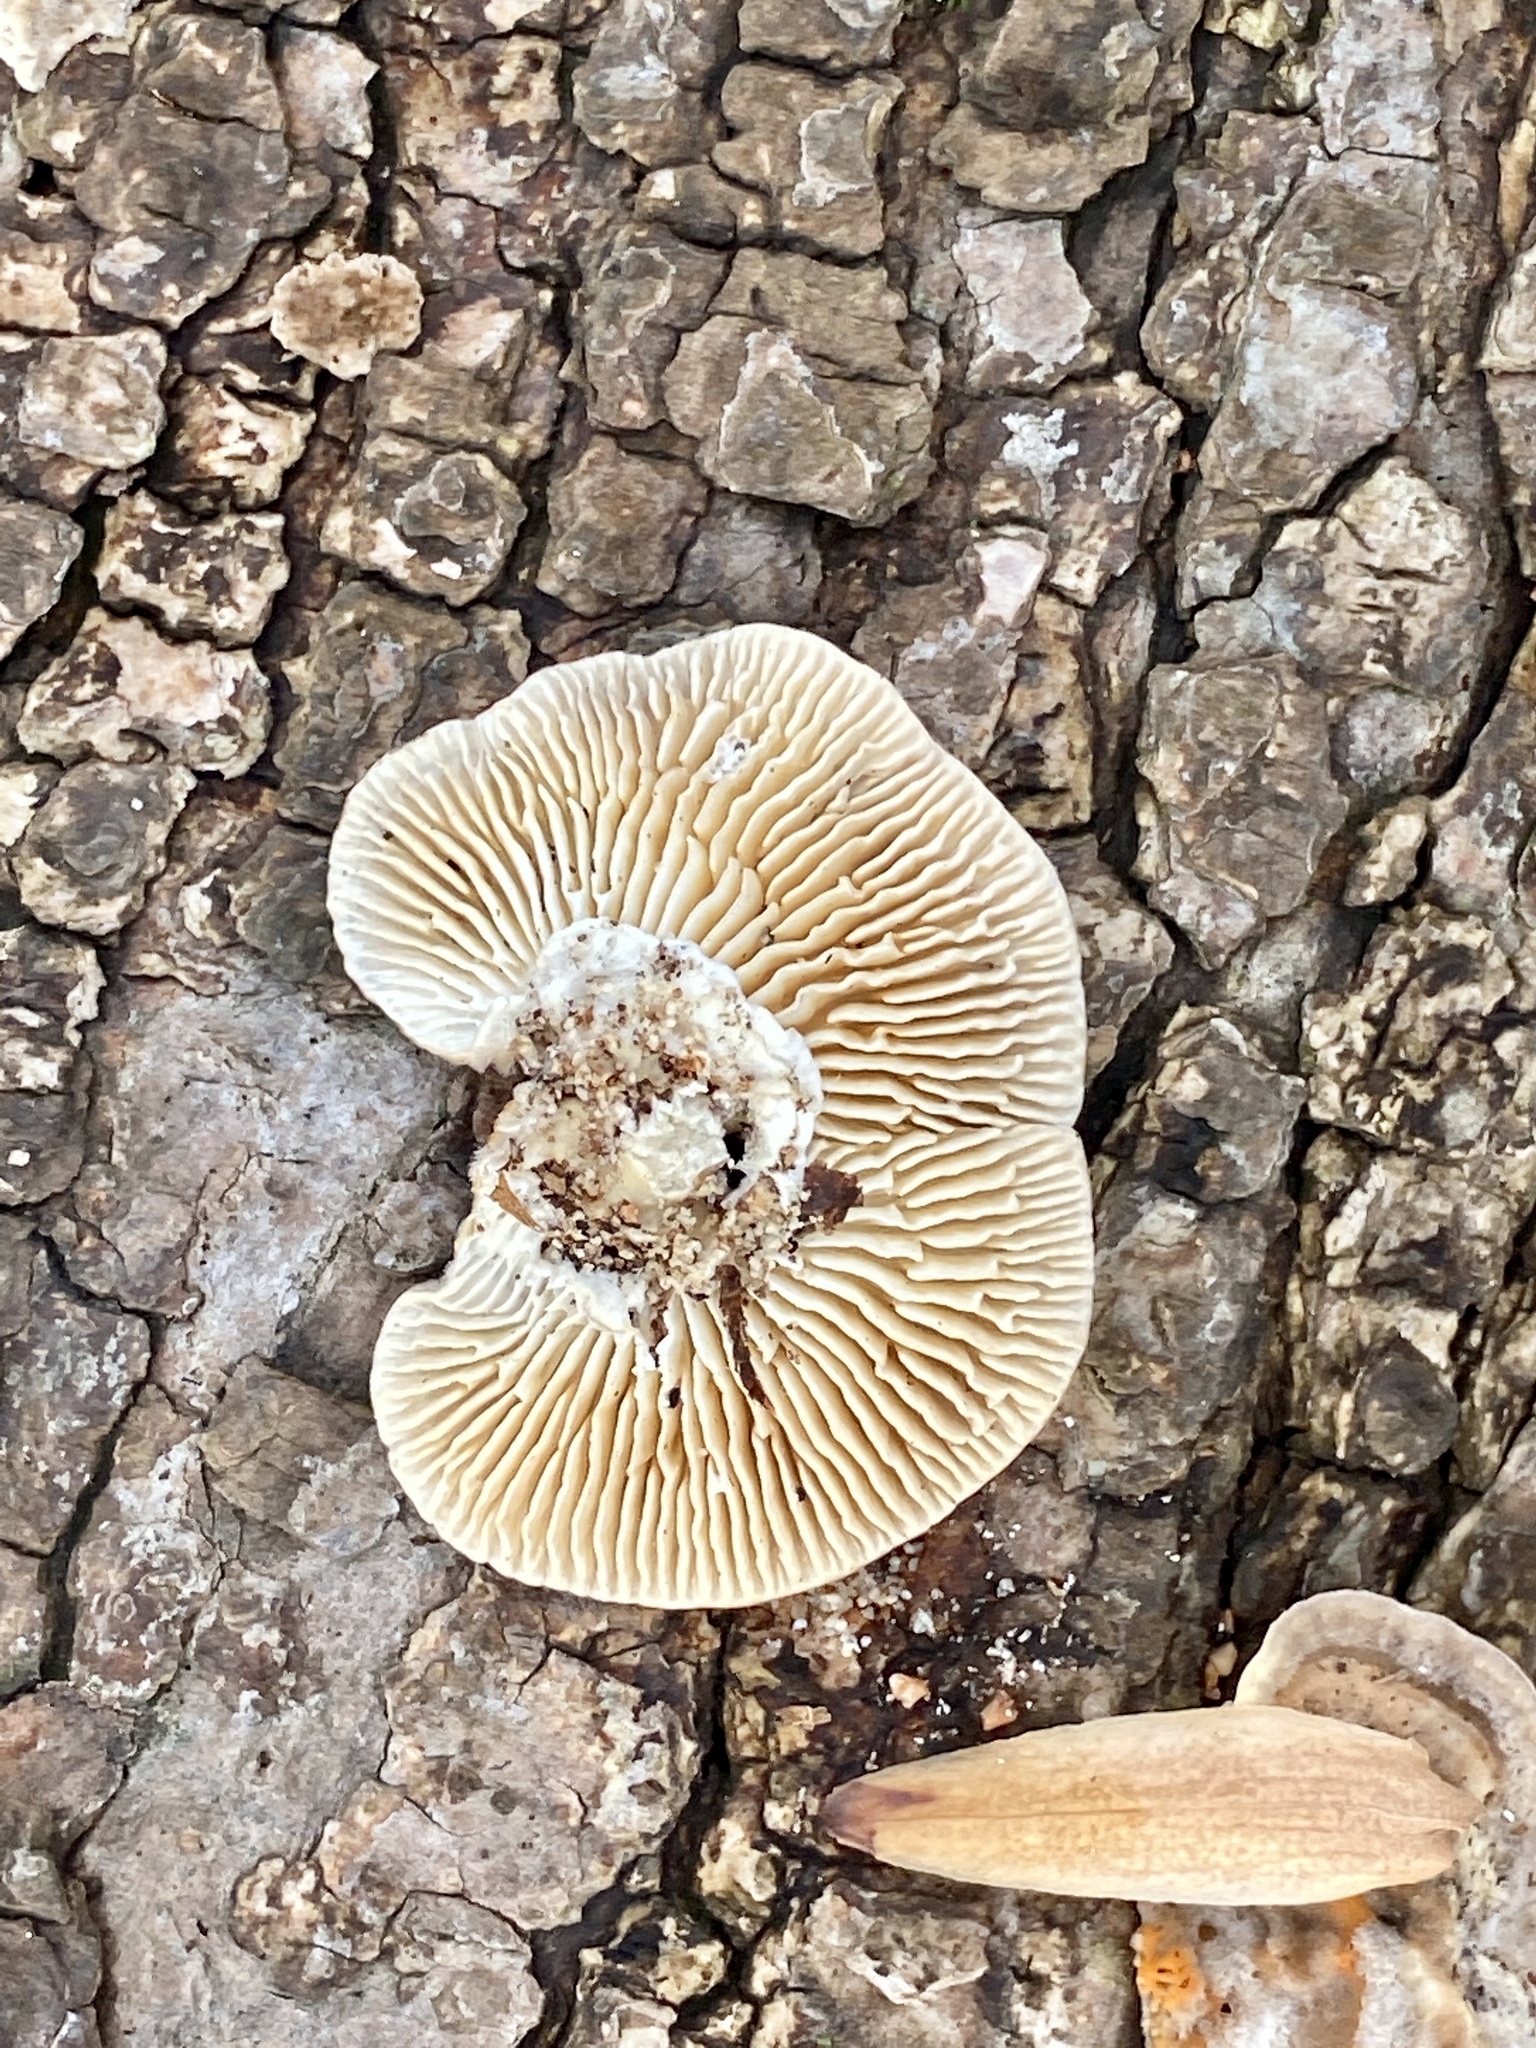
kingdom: Fungi
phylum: Basidiomycota
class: Agaricomycetes
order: Polyporales
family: Polyporaceae
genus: Lenzites
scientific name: Lenzites betulinus
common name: Birch mazegill
